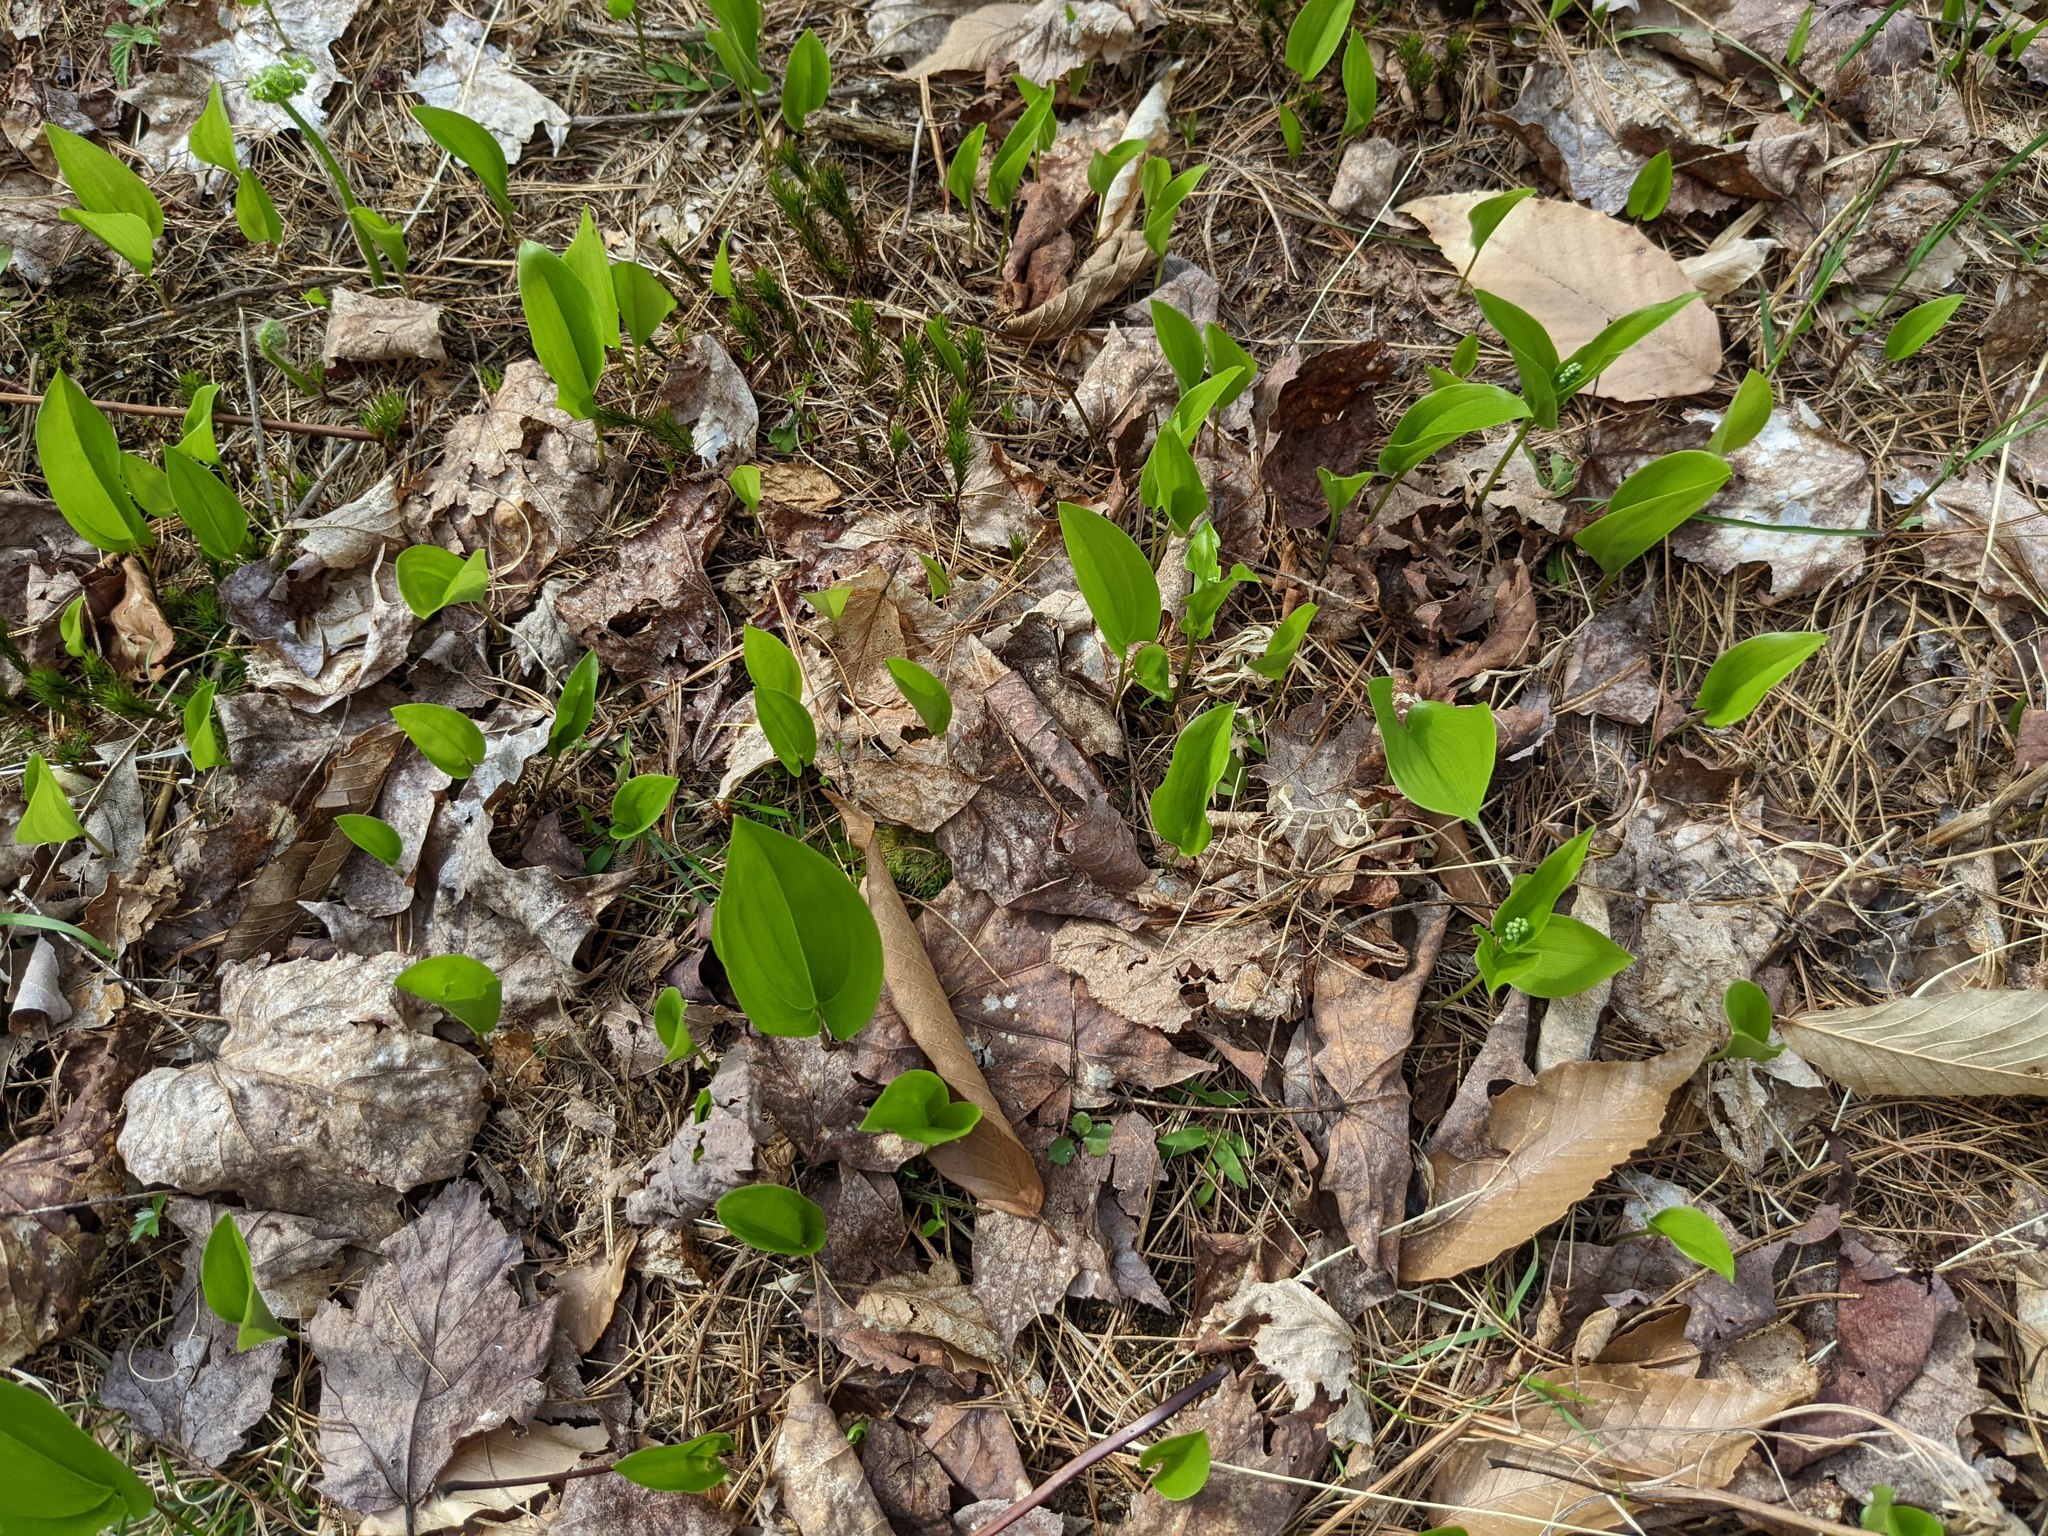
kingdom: Plantae
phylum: Tracheophyta
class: Liliopsida
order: Asparagales
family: Asparagaceae
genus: Maianthemum
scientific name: Maianthemum canadense
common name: False lily-of-the-valley
